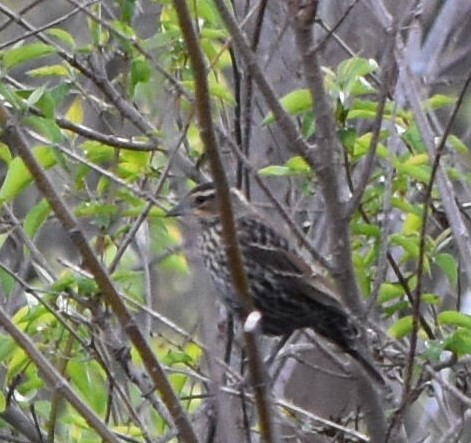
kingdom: Animalia
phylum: Chordata
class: Aves
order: Passeriformes
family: Icteridae
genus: Agelaius
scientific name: Agelaius phoeniceus
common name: Red-winged blackbird
